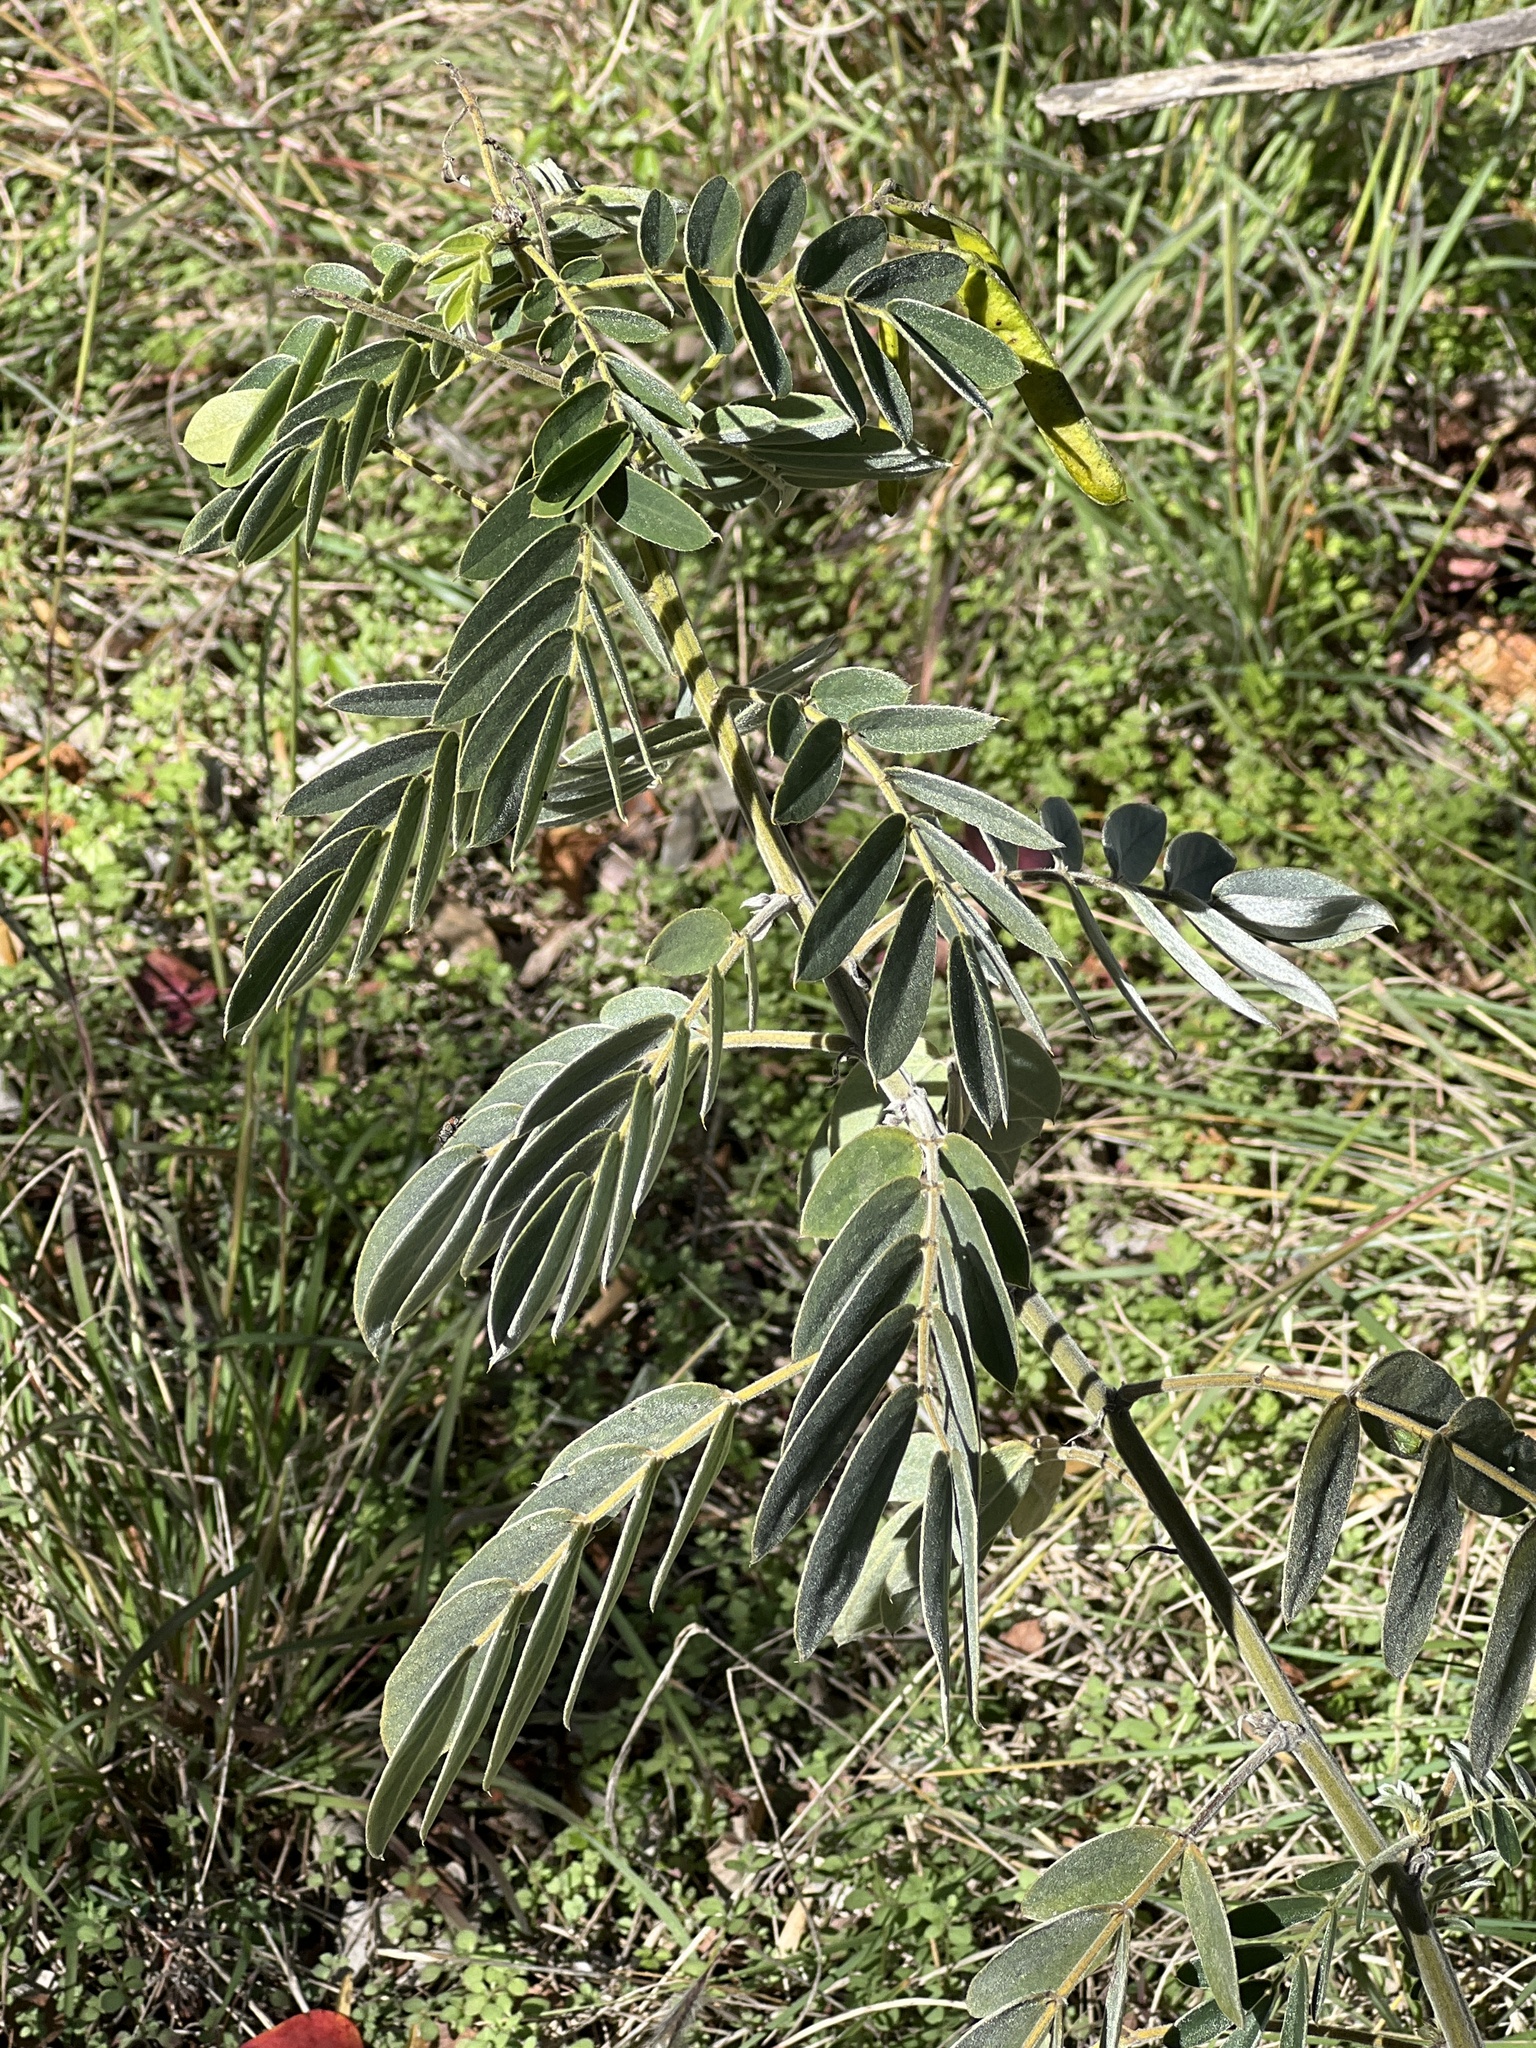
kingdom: Plantae
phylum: Tracheophyta
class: Magnoliopsida
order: Fabales
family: Fabaceae
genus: Senna
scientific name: Senna lindheimeriana
